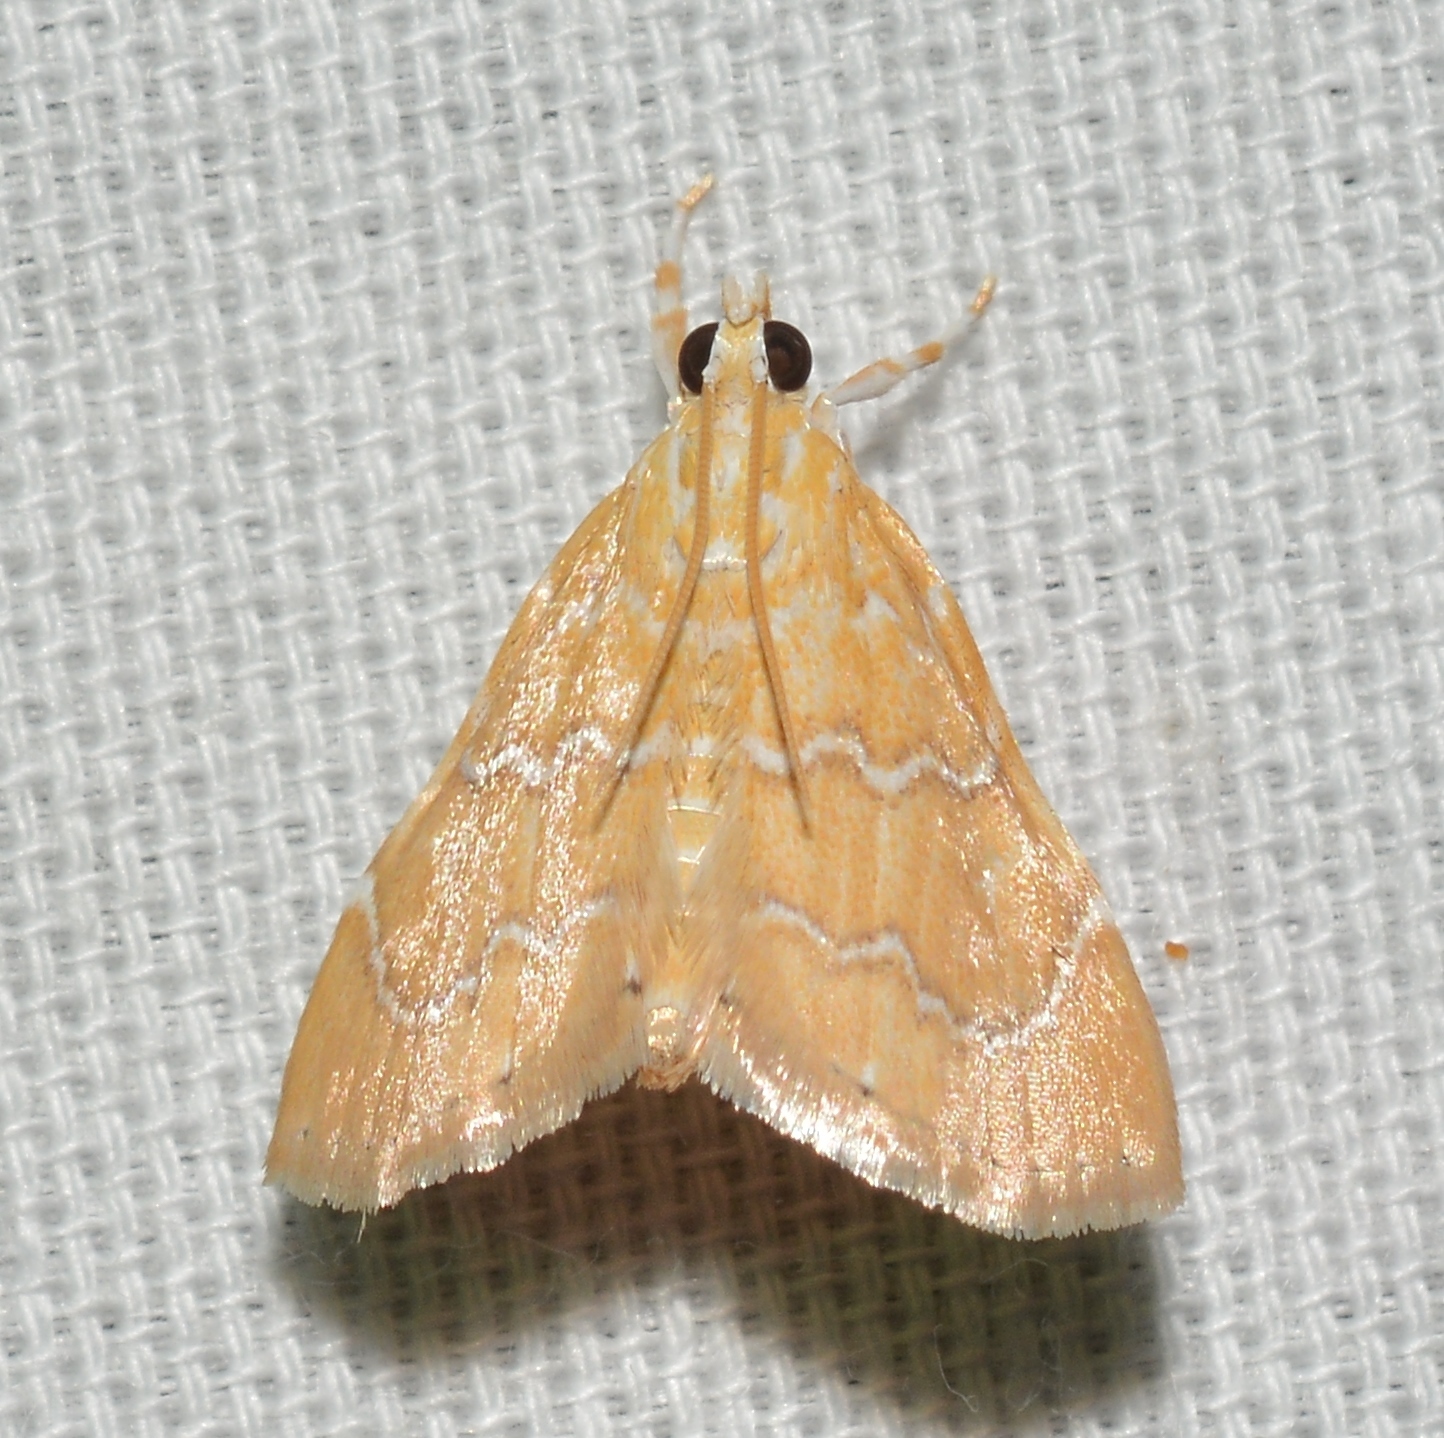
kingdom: Animalia
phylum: Arthropoda
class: Insecta
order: Lepidoptera
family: Crambidae
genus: Glaphyria
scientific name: Glaphyria sesquistrialis
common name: White-roped glaphyria
